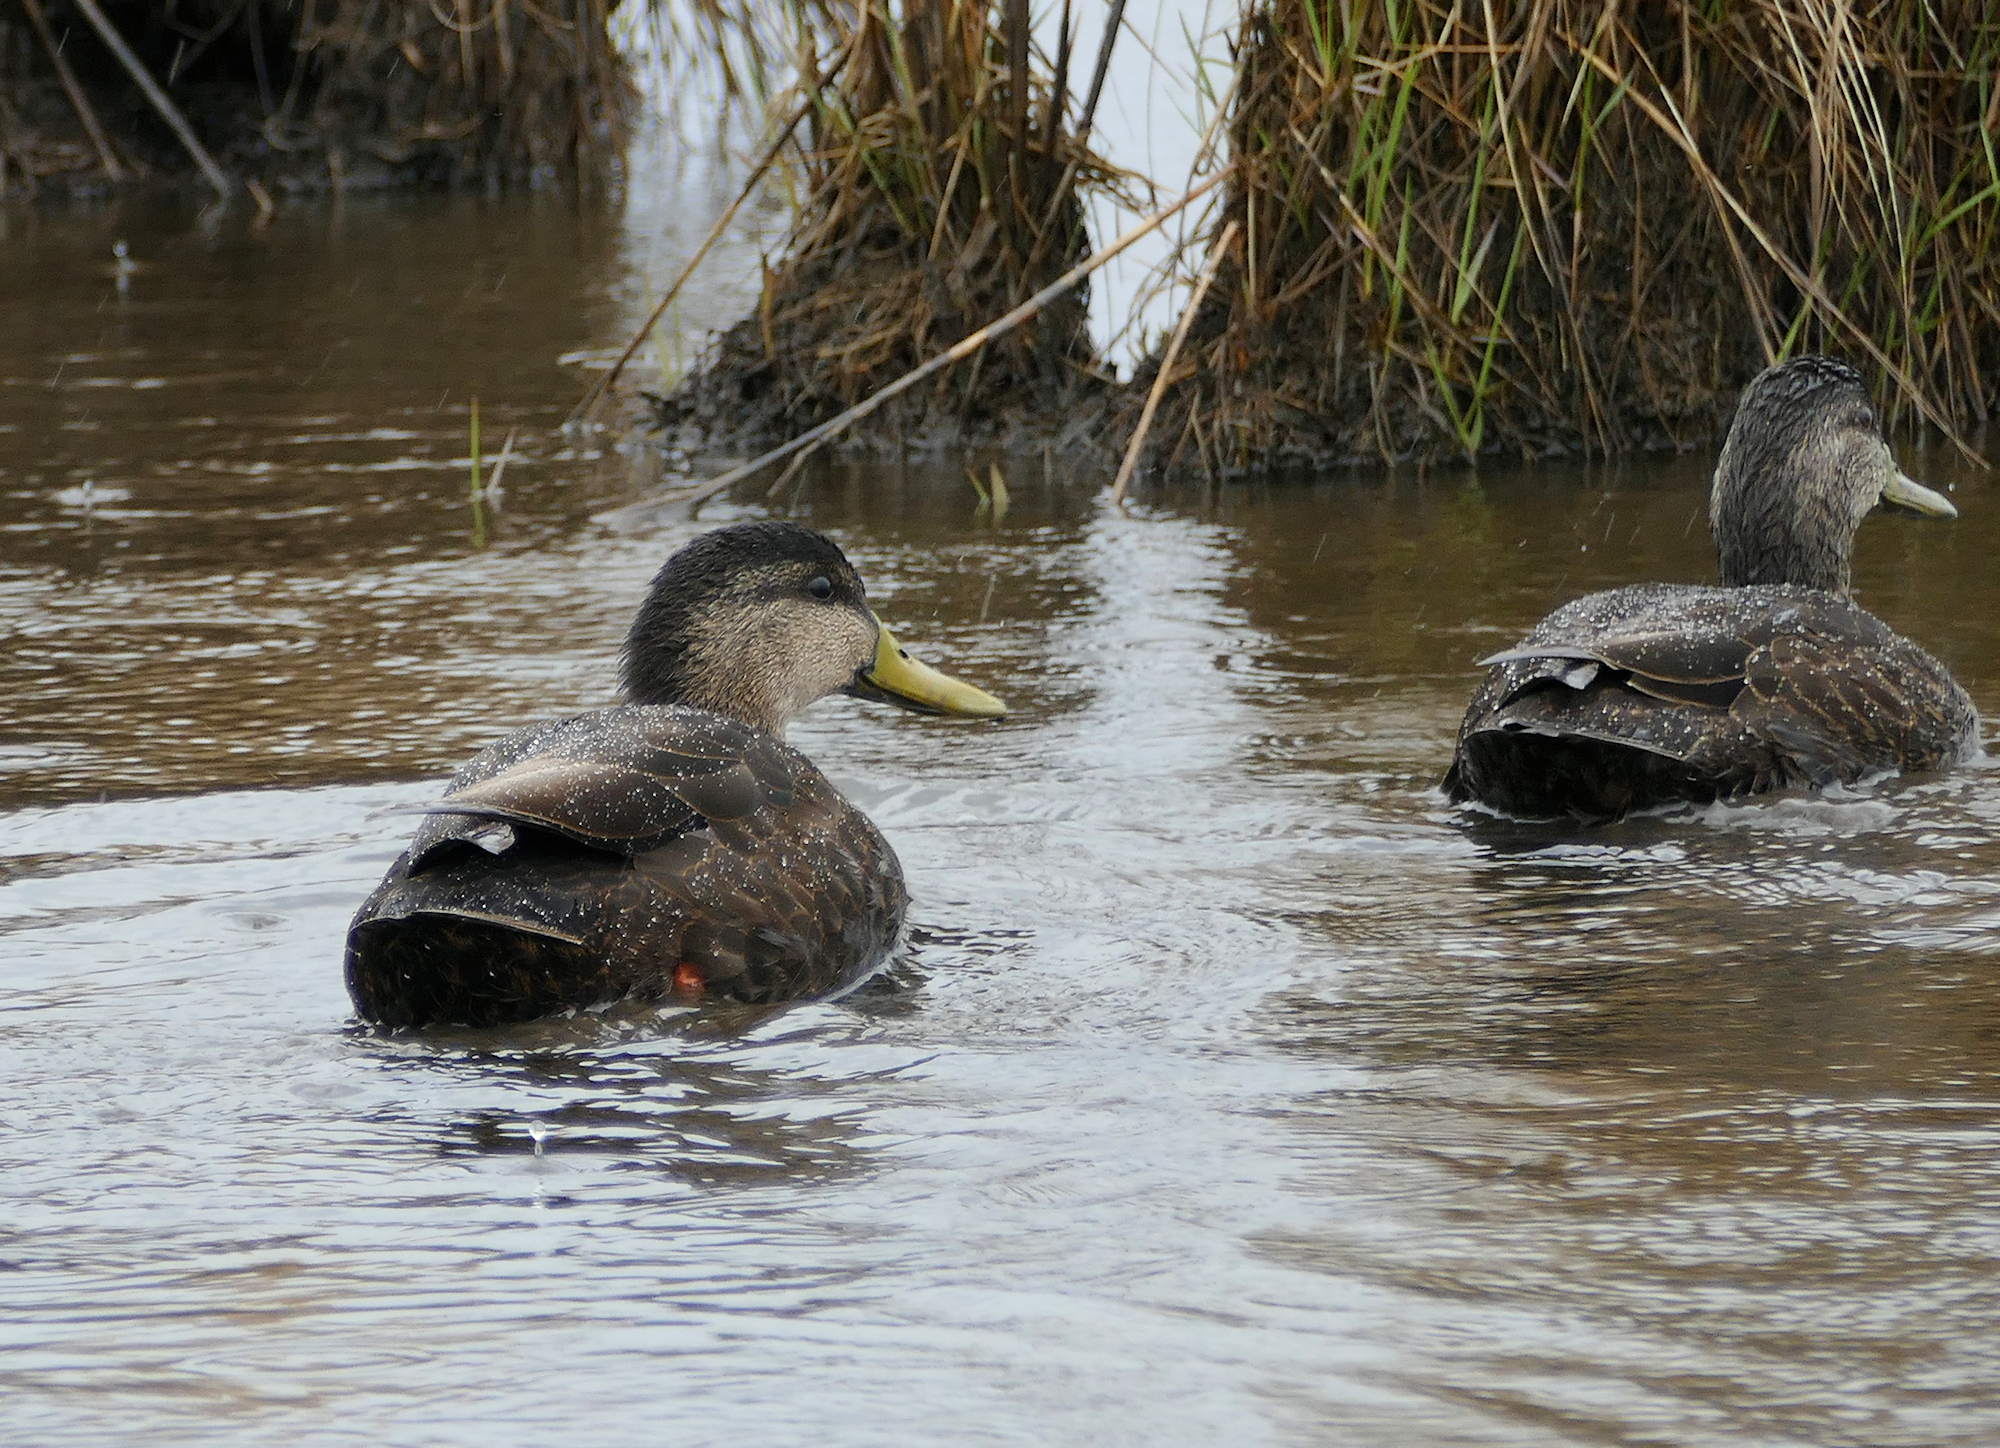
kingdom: Animalia
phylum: Chordata
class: Aves
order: Anseriformes
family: Anatidae
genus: Anas
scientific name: Anas rubripes
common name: American black duck
